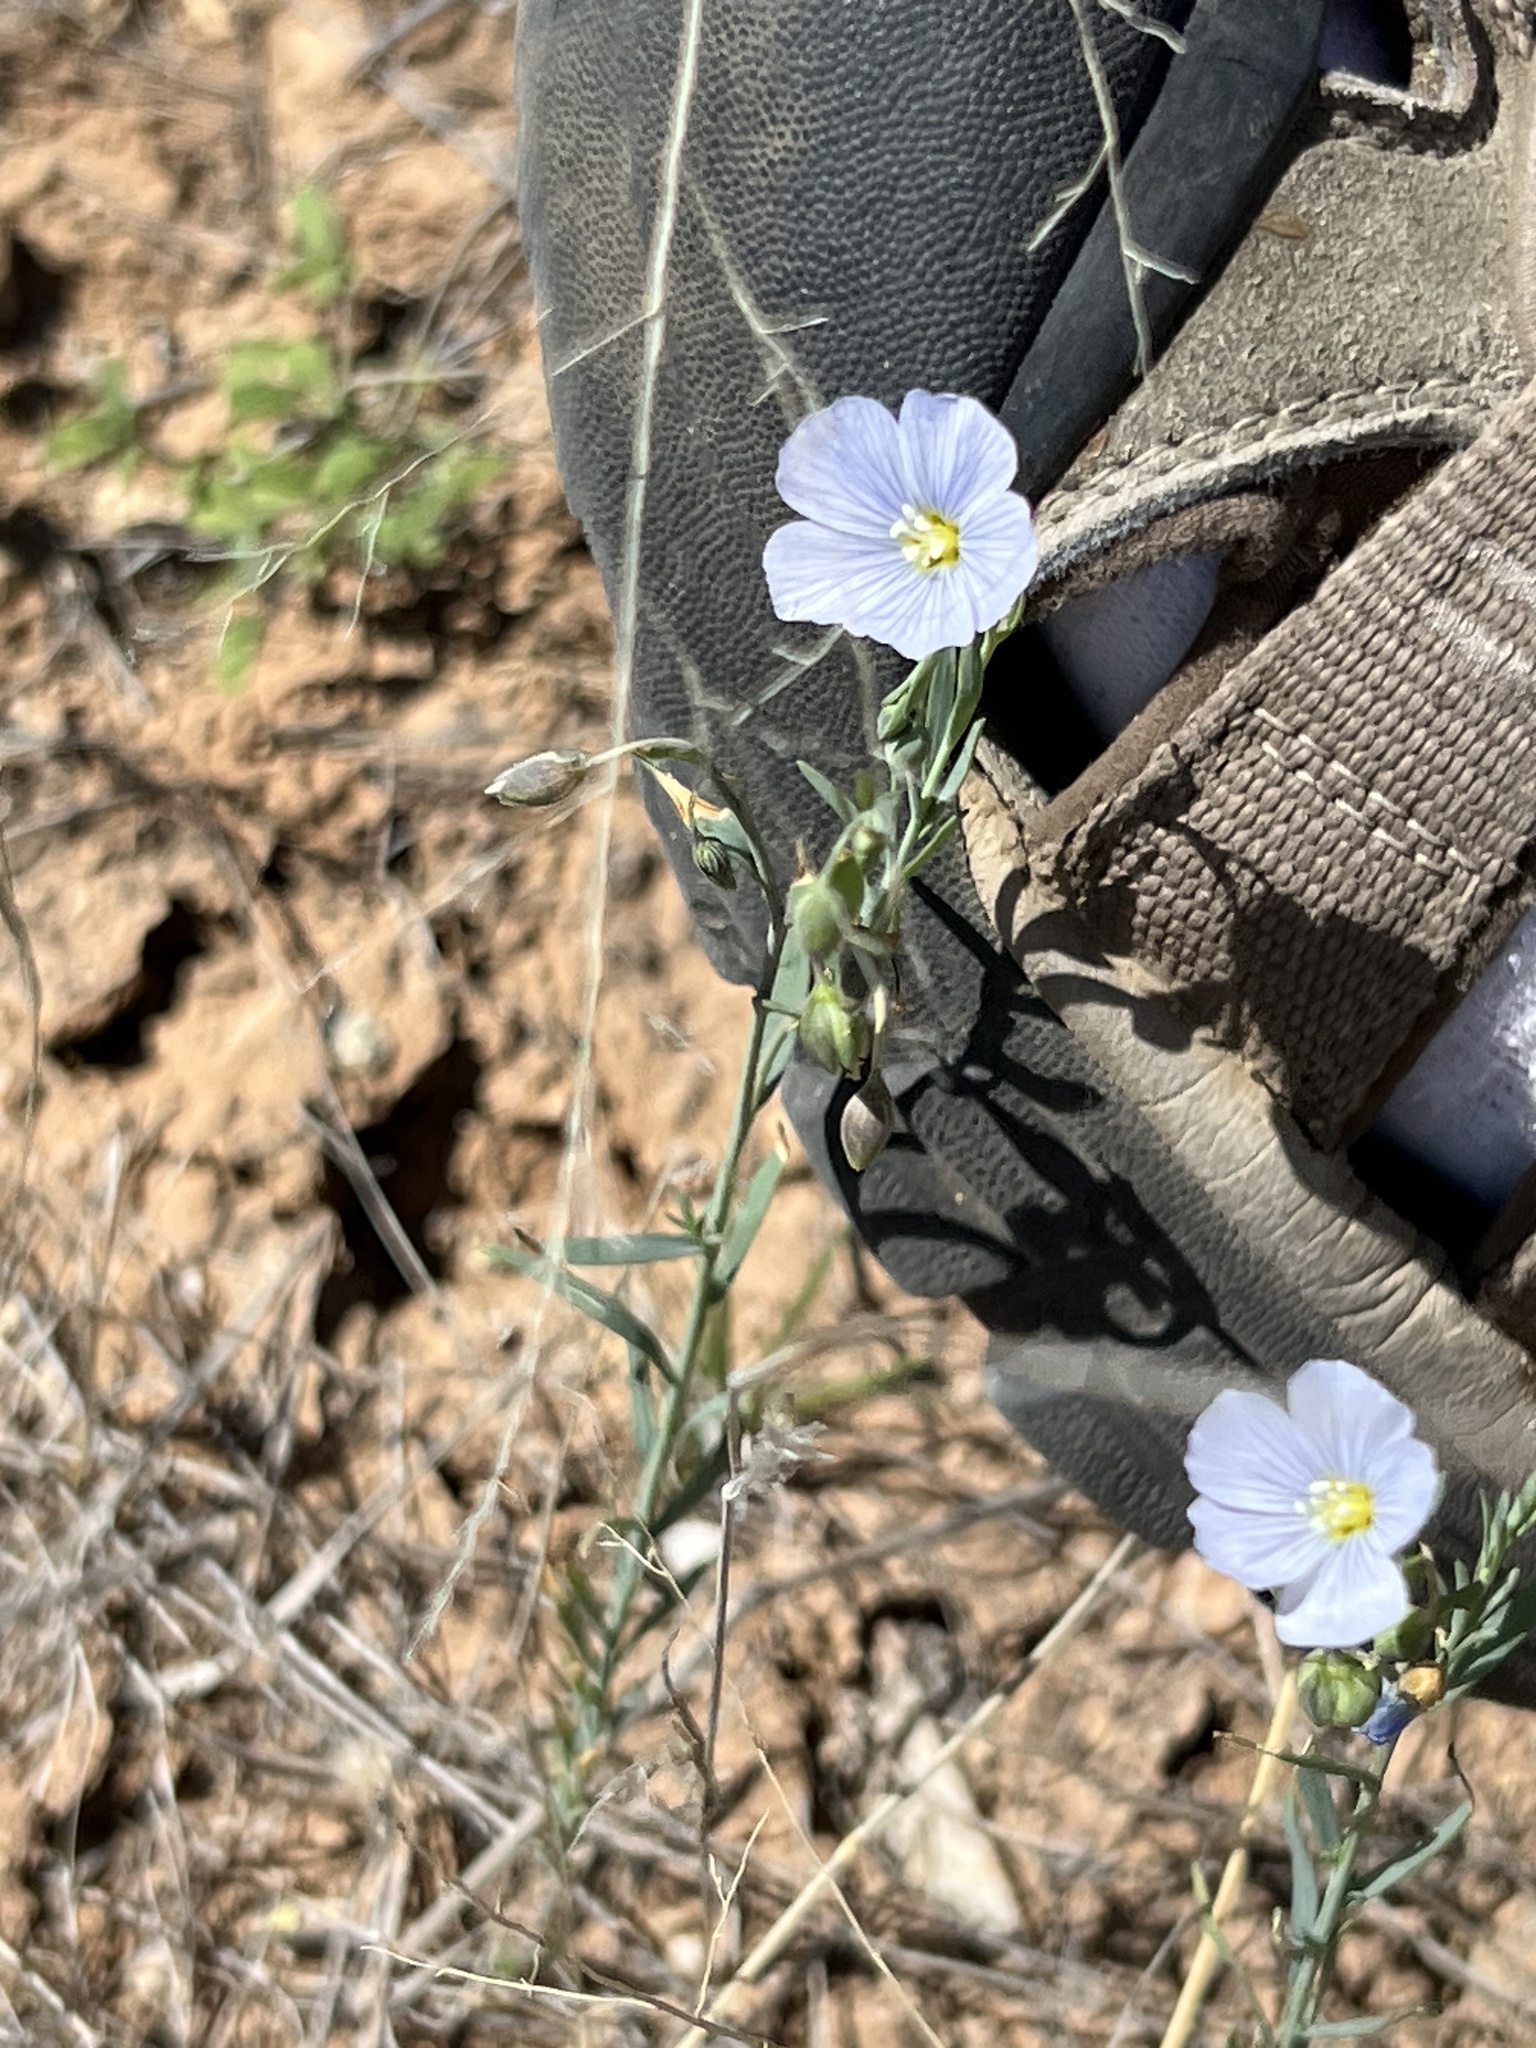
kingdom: Plantae
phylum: Tracheophyta
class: Magnoliopsida
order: Malpighiales
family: Linaceae
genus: Linum
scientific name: Linum lewisii
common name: Prairie flax
